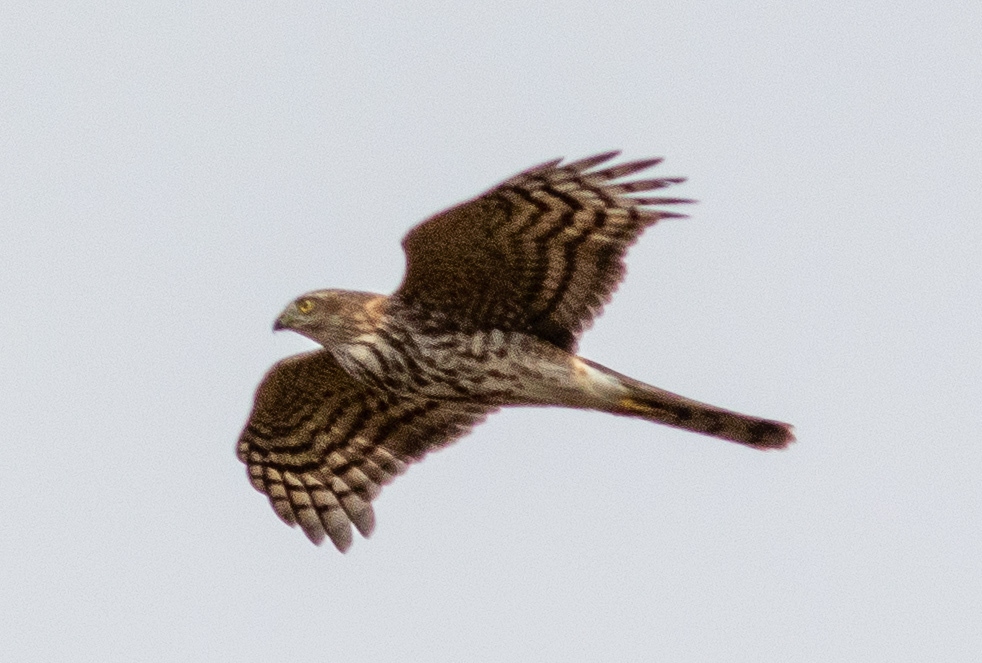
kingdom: Animalia
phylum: Chordata
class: Aves
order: Accipitriformes
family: Accipitridae
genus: Accipiter
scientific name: Accipiter striatus
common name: Sharp-shinned hawk
